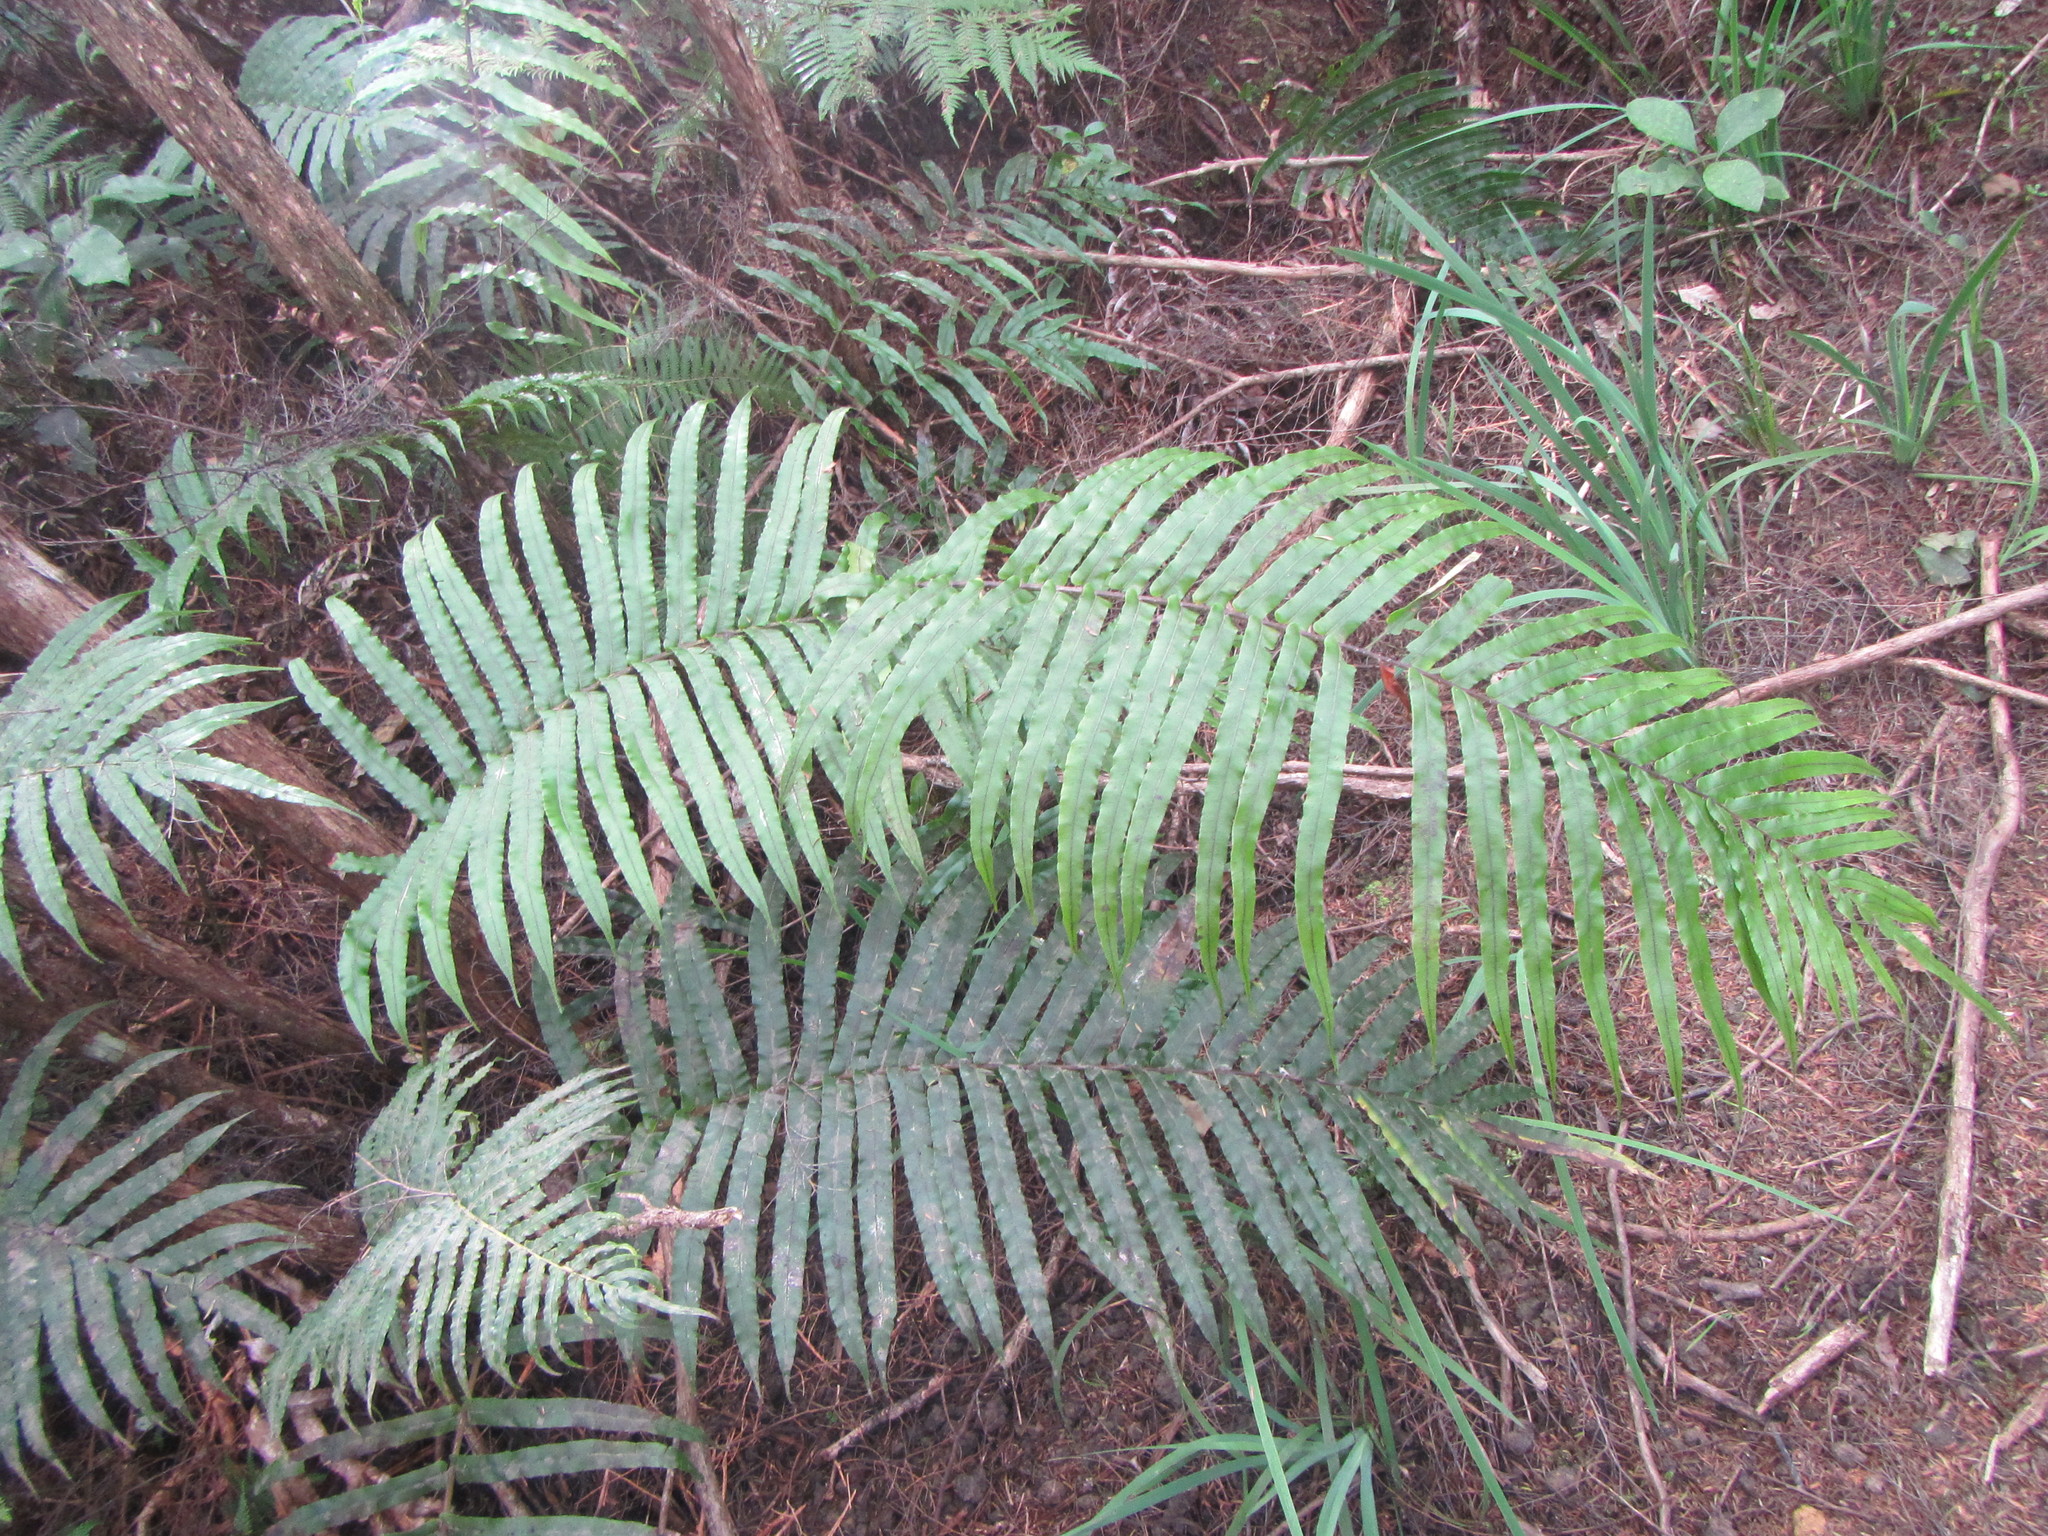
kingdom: Plantae
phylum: Tracheophyta
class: Polypodiopsida
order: Polypodiales
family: Blechnaceae
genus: Parablechnum
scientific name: Parablechnum novae-zelandiae
